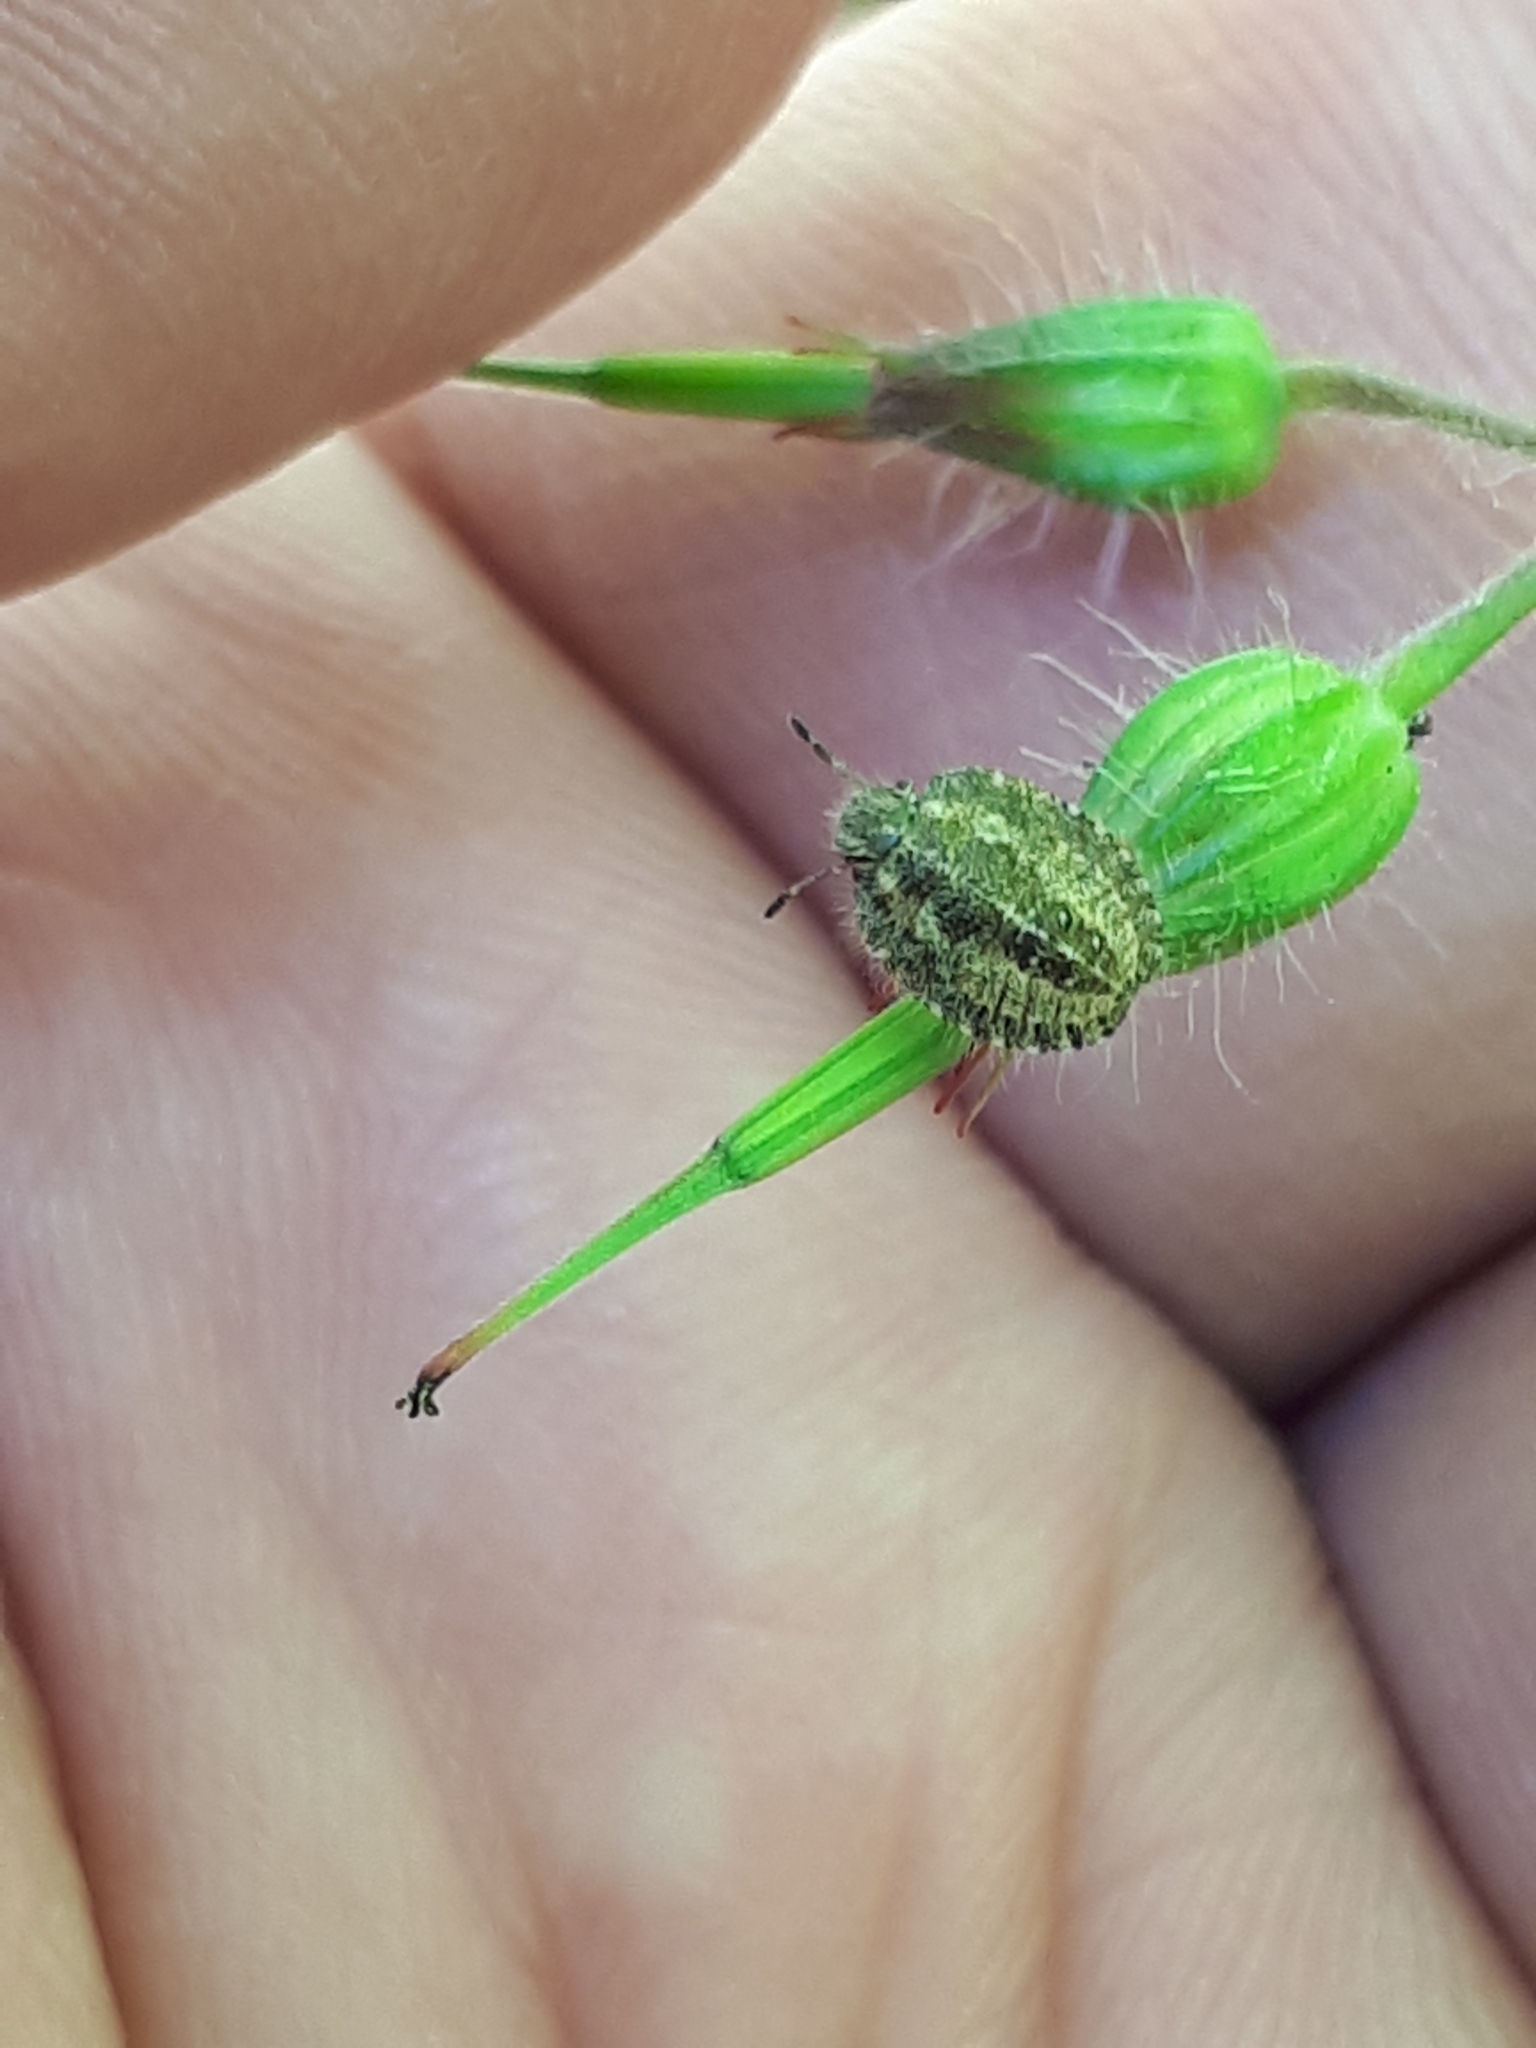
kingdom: Animalia
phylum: Arthropoda
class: Insecta
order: Hemiptera
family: Pentatomidae
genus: Dolycoris
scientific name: Dolycoris baccarum
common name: Sloe bug
